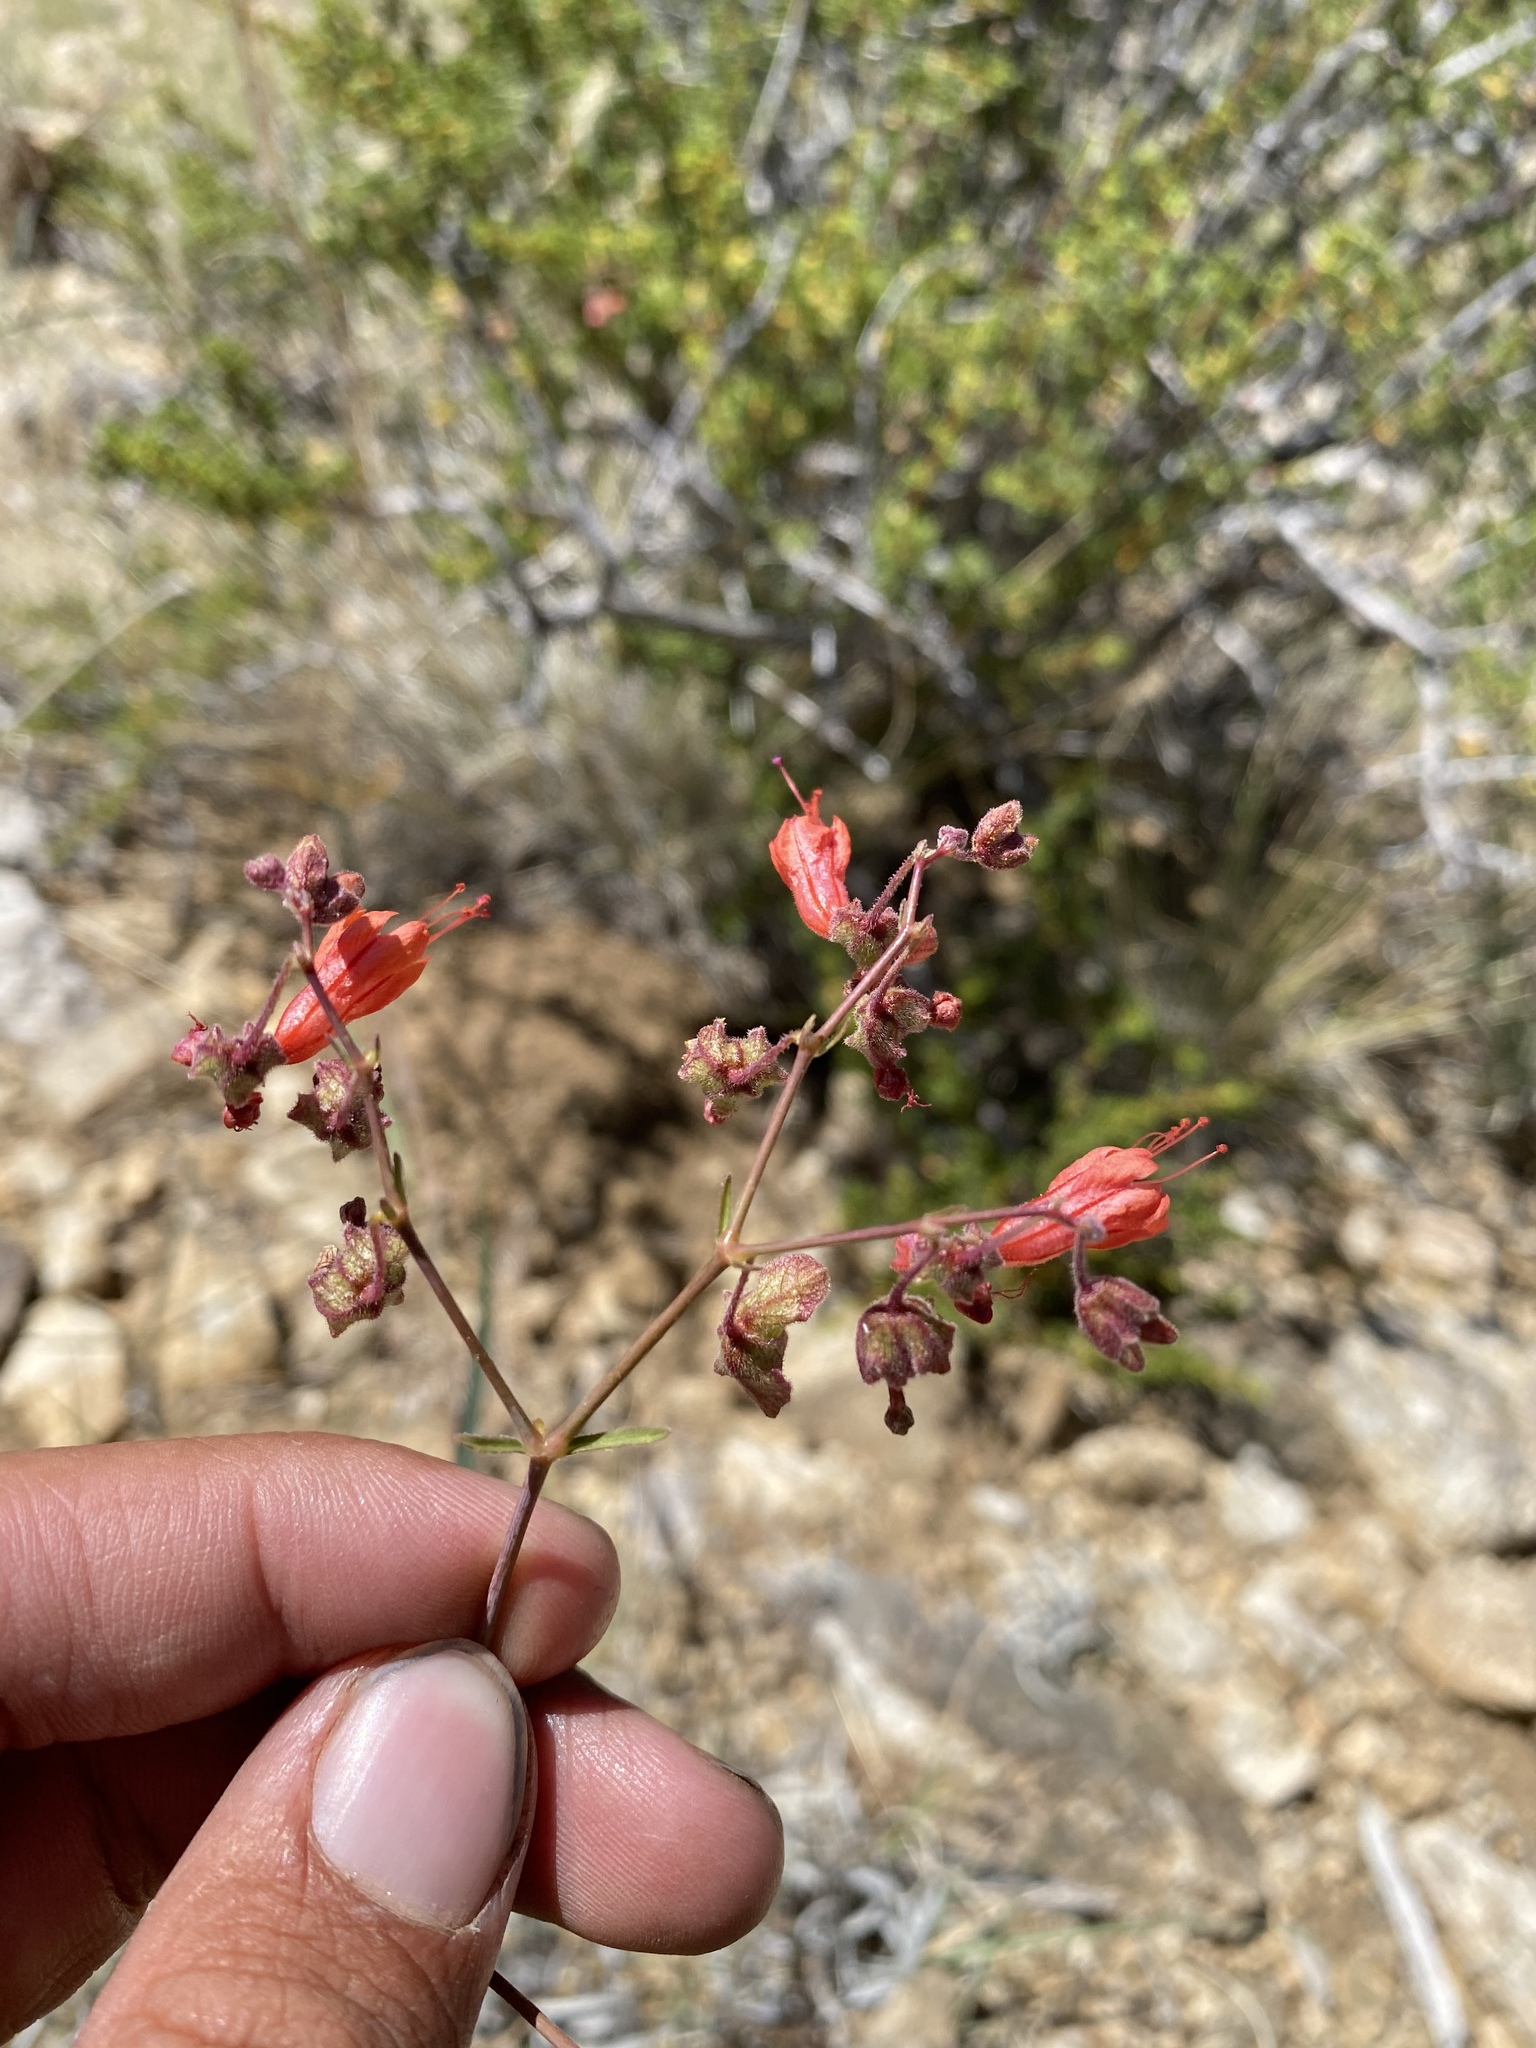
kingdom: Plantae
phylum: Tracheophyta
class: Magnoliopsida
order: Caryophyllales
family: Nyctaginaceae
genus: Mirabilis
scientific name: Mirabilis coccinea
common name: Scarlet four-o'clock
